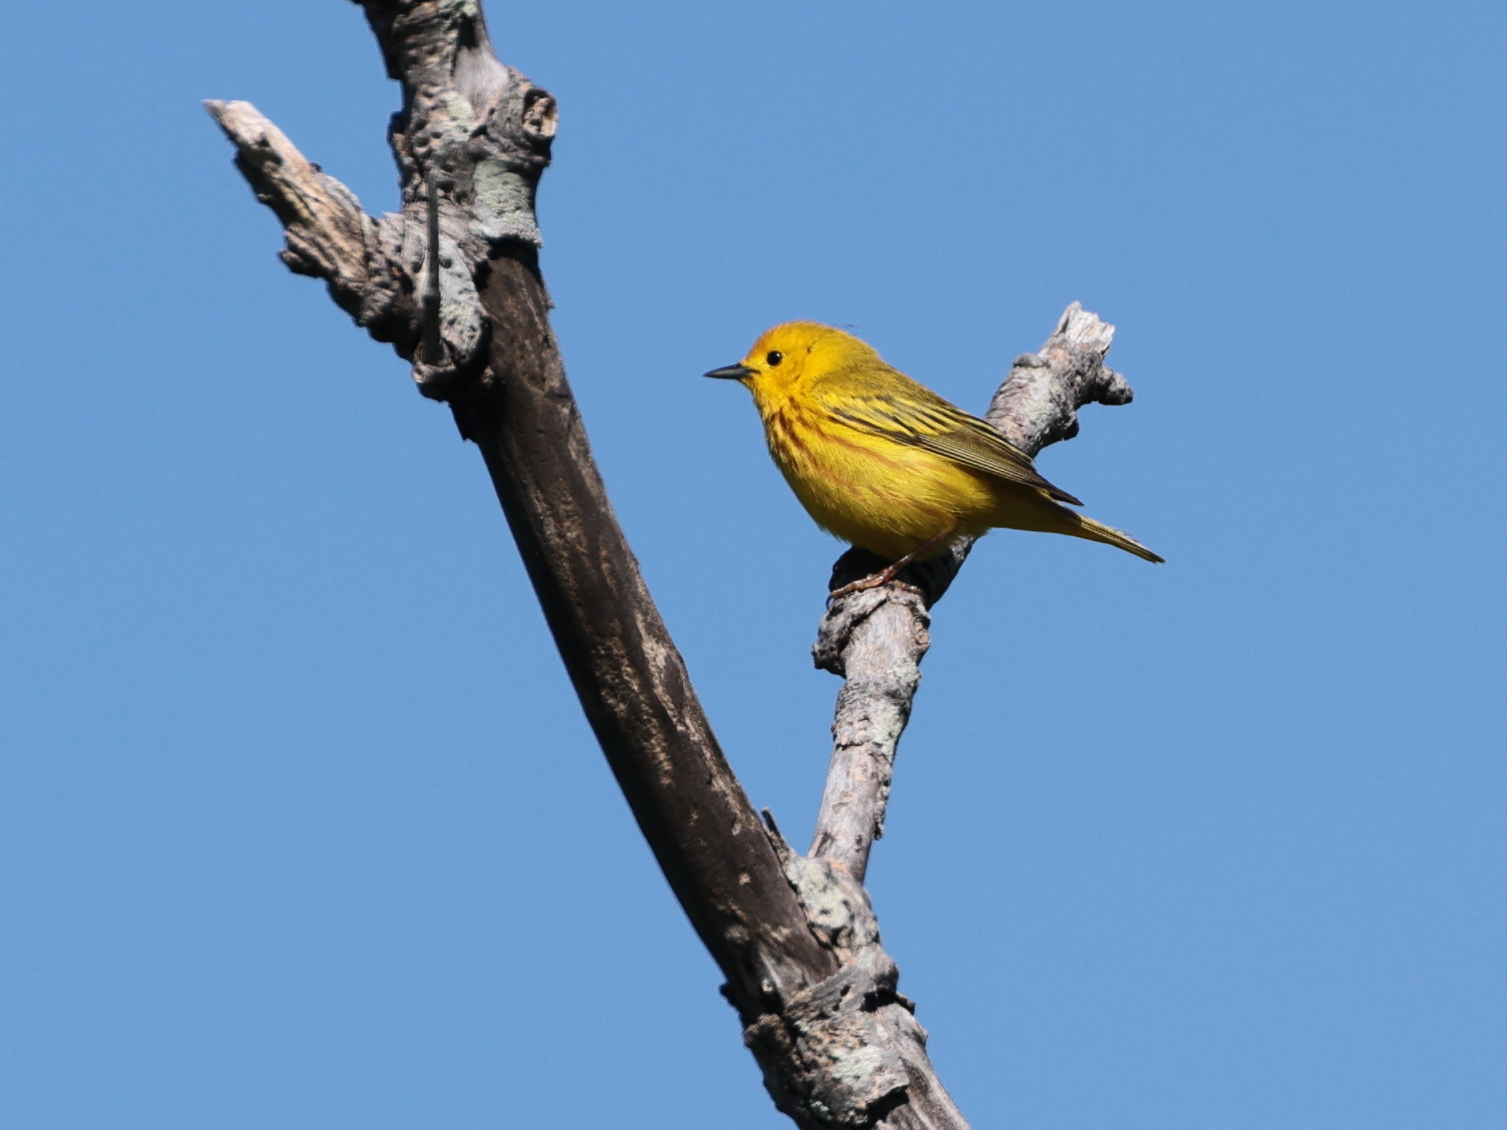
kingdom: Animalia
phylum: Chordata
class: Aves
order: Passeriformes
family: Parulidae
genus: Setophaga
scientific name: Setophaga petechia
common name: Yellow warbler
